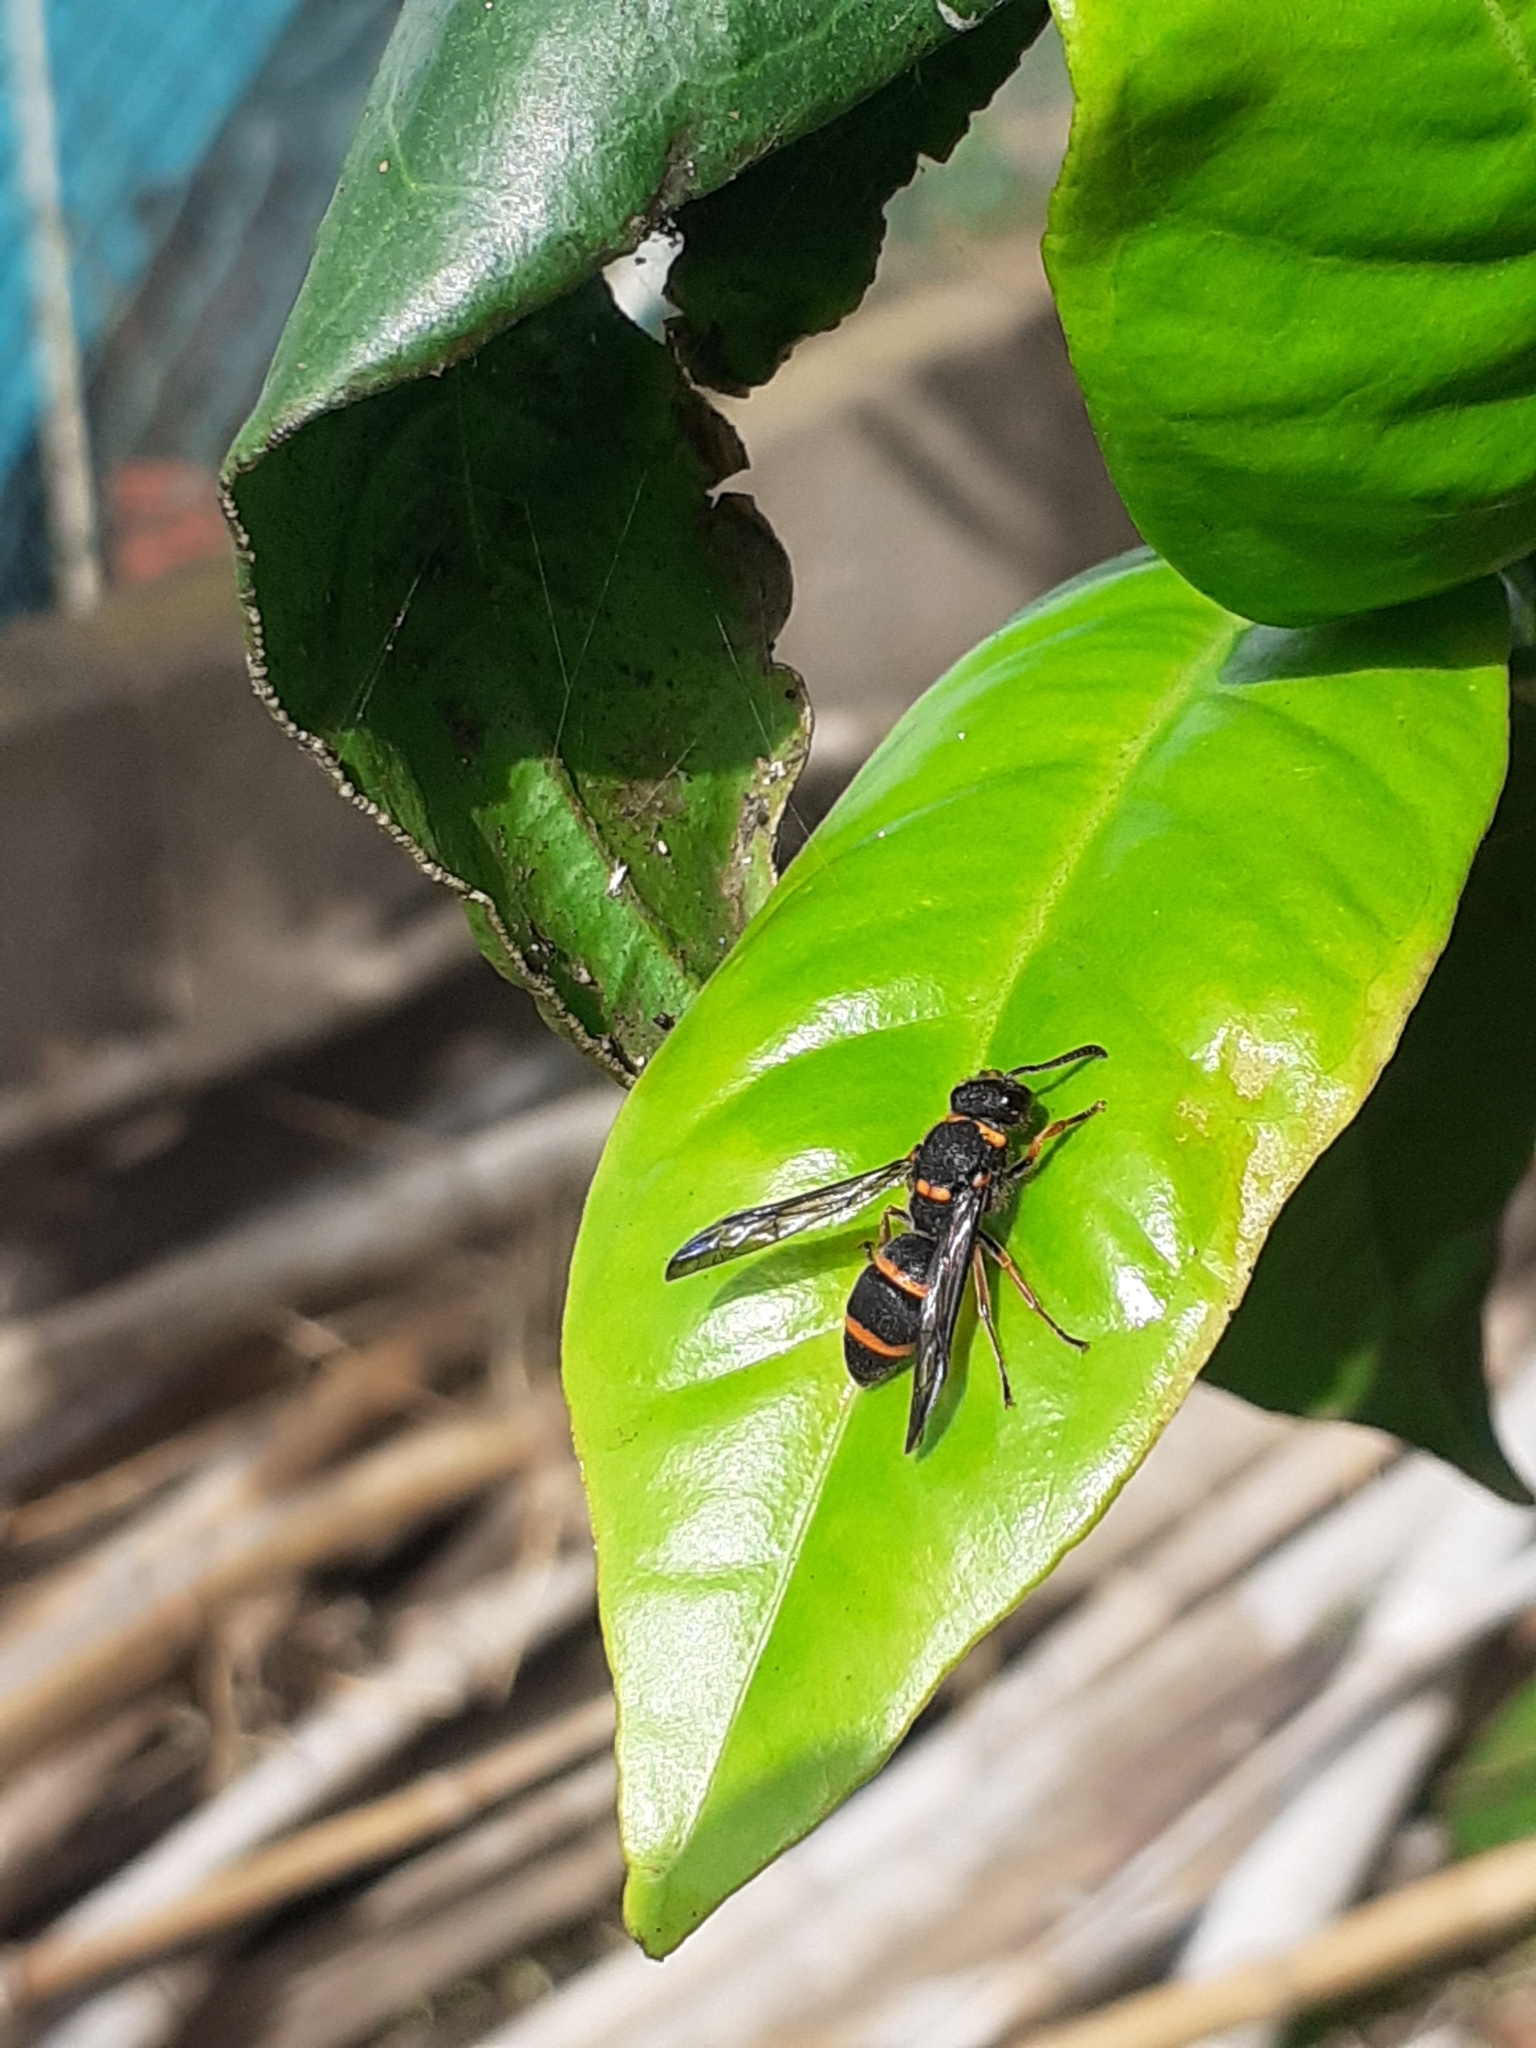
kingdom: Animalia
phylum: Arthropoda
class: Insecta
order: Hymenoptera
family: Vespidae
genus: Ancistrocerus
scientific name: Ancistrocerus haematodes
